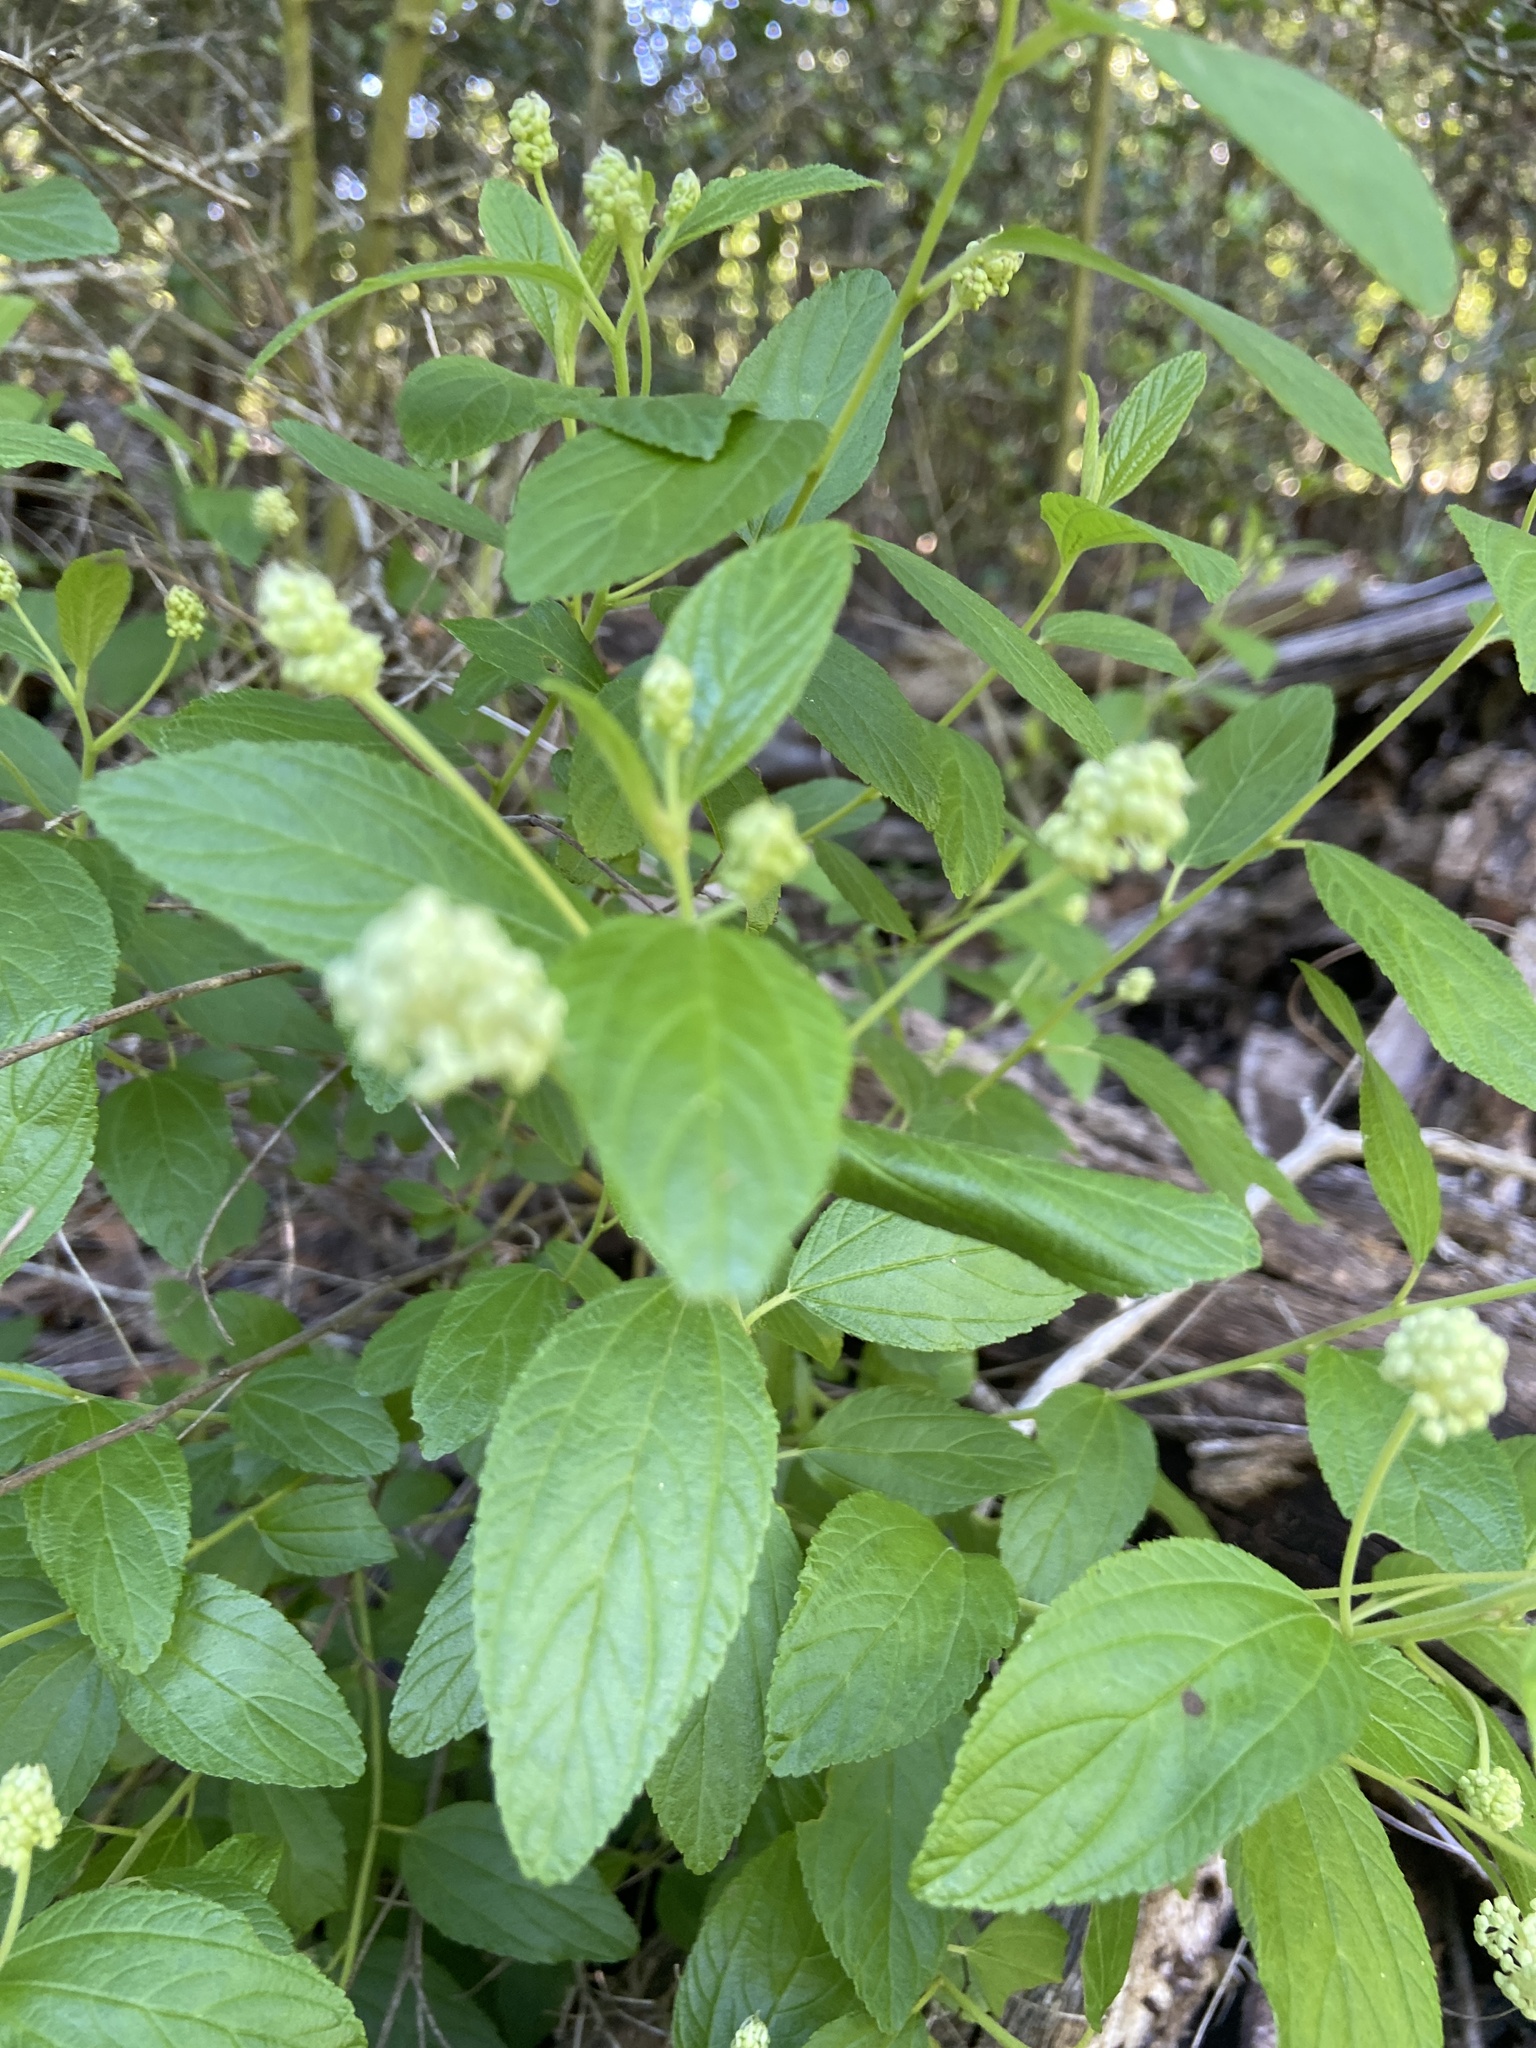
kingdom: Plantae
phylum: Tracheophyta
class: Magnoliopsida
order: Rosales
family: Rhamnaceae
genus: Ceanothus
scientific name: Ceanothus americanus
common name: Redroot
